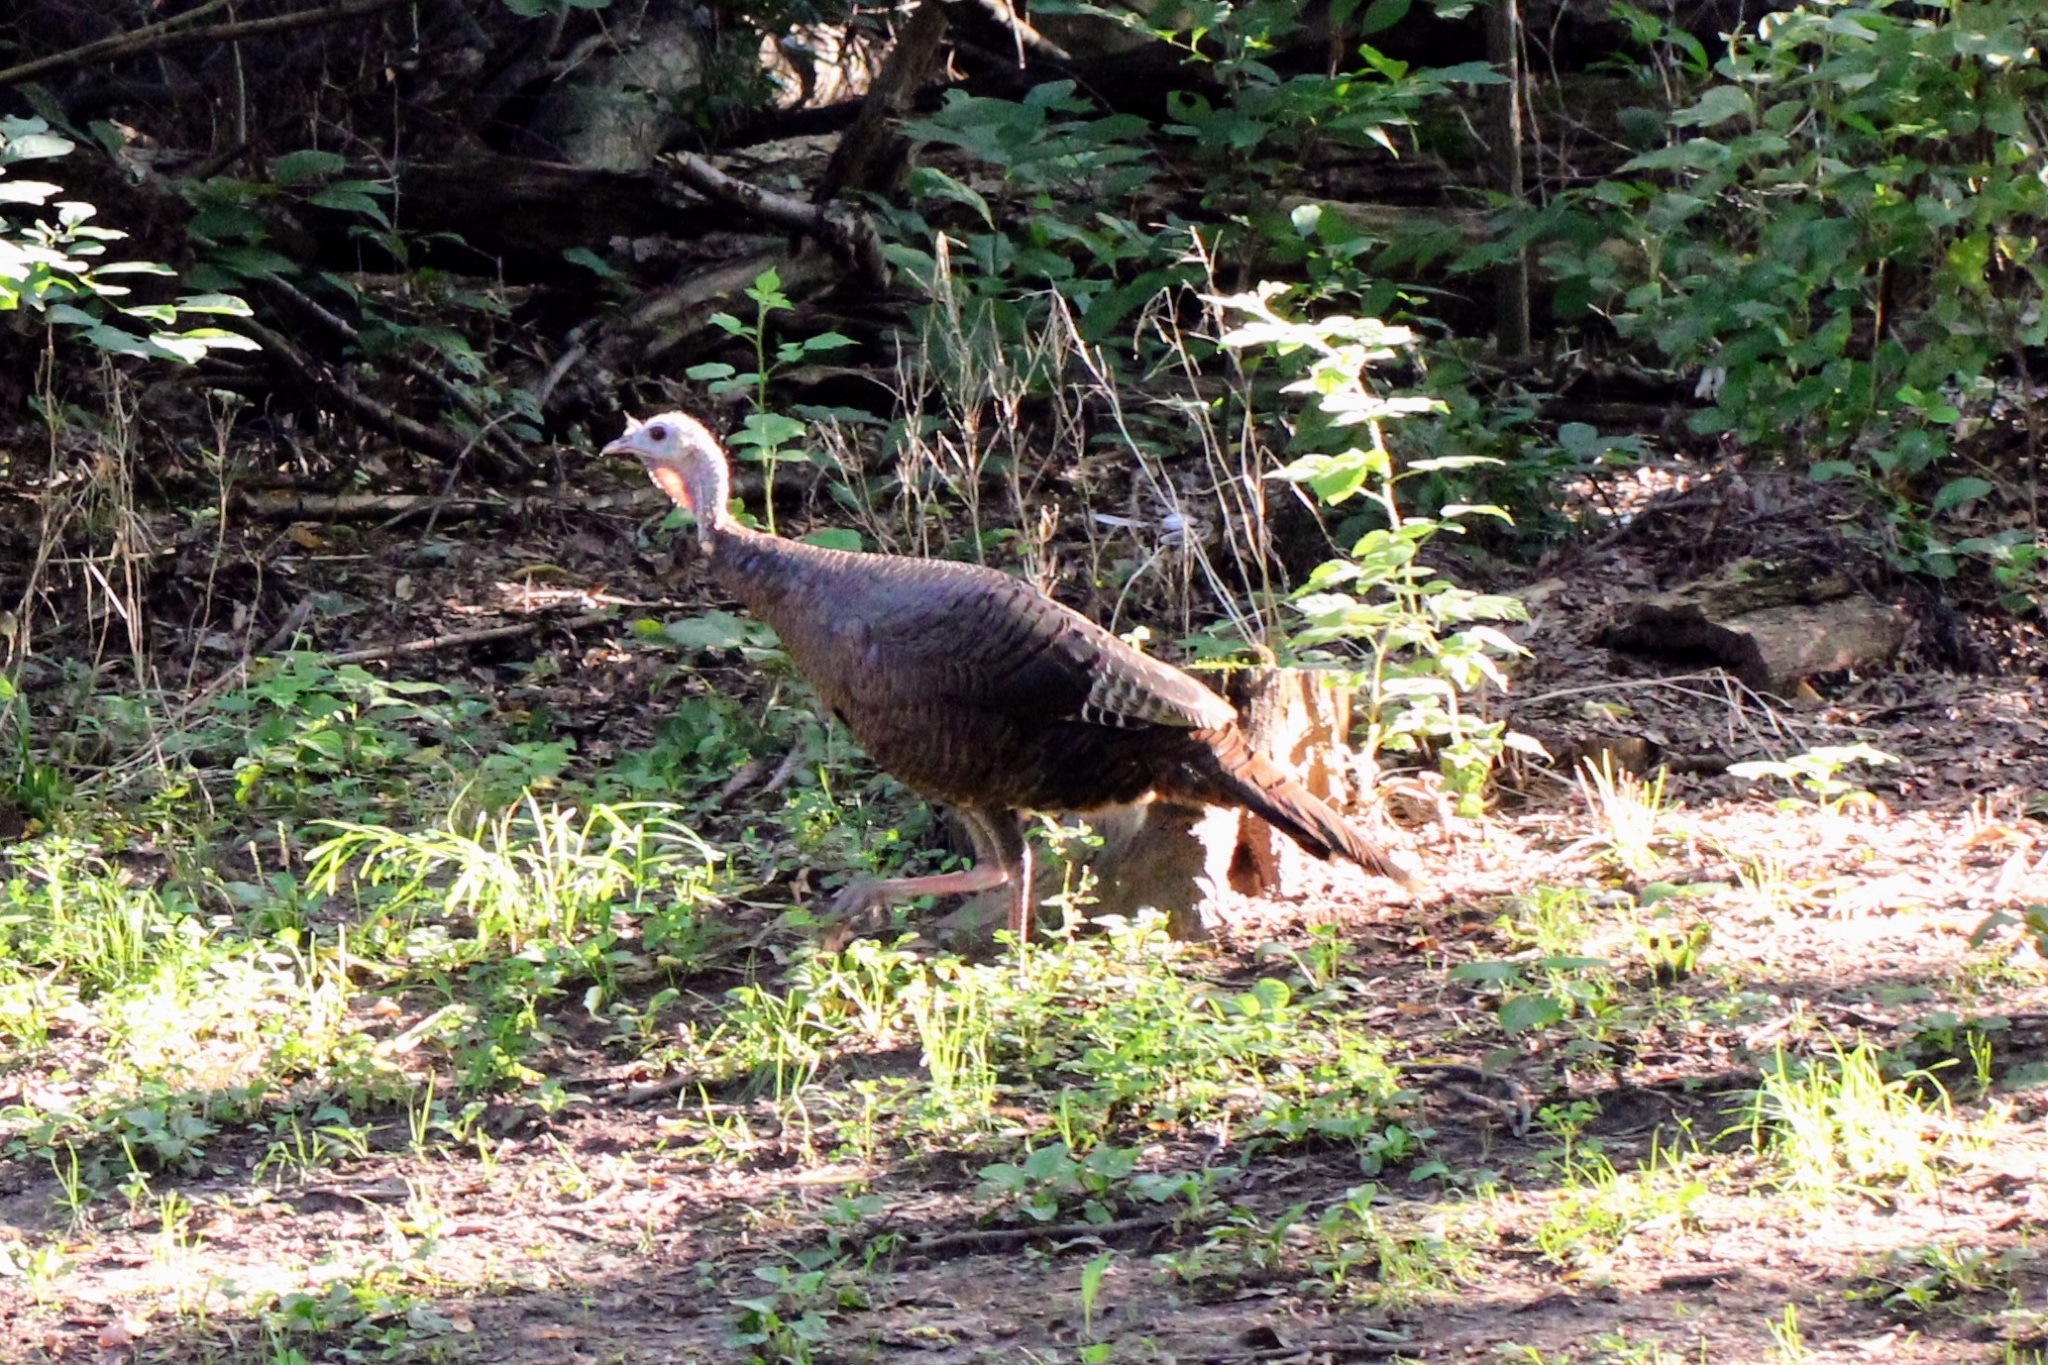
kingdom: Animalia
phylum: Chordata
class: Aves
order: Galliformes
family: Phasianidae
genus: Meleagris
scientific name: Meleagris gallopavo
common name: Wild turkey
